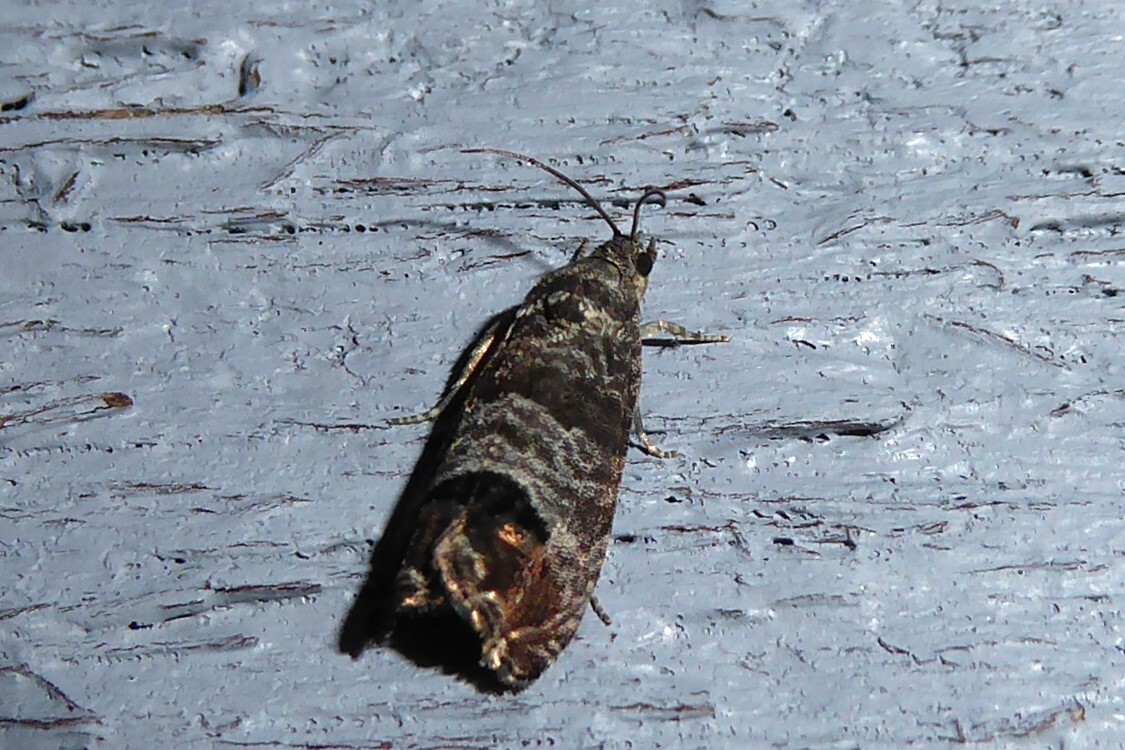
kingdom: Animalia
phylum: Arthropoda
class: Insecta
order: Lepidoptera
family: Tortricidae
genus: Cydia
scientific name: Cydia pomonella
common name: Codling moth
